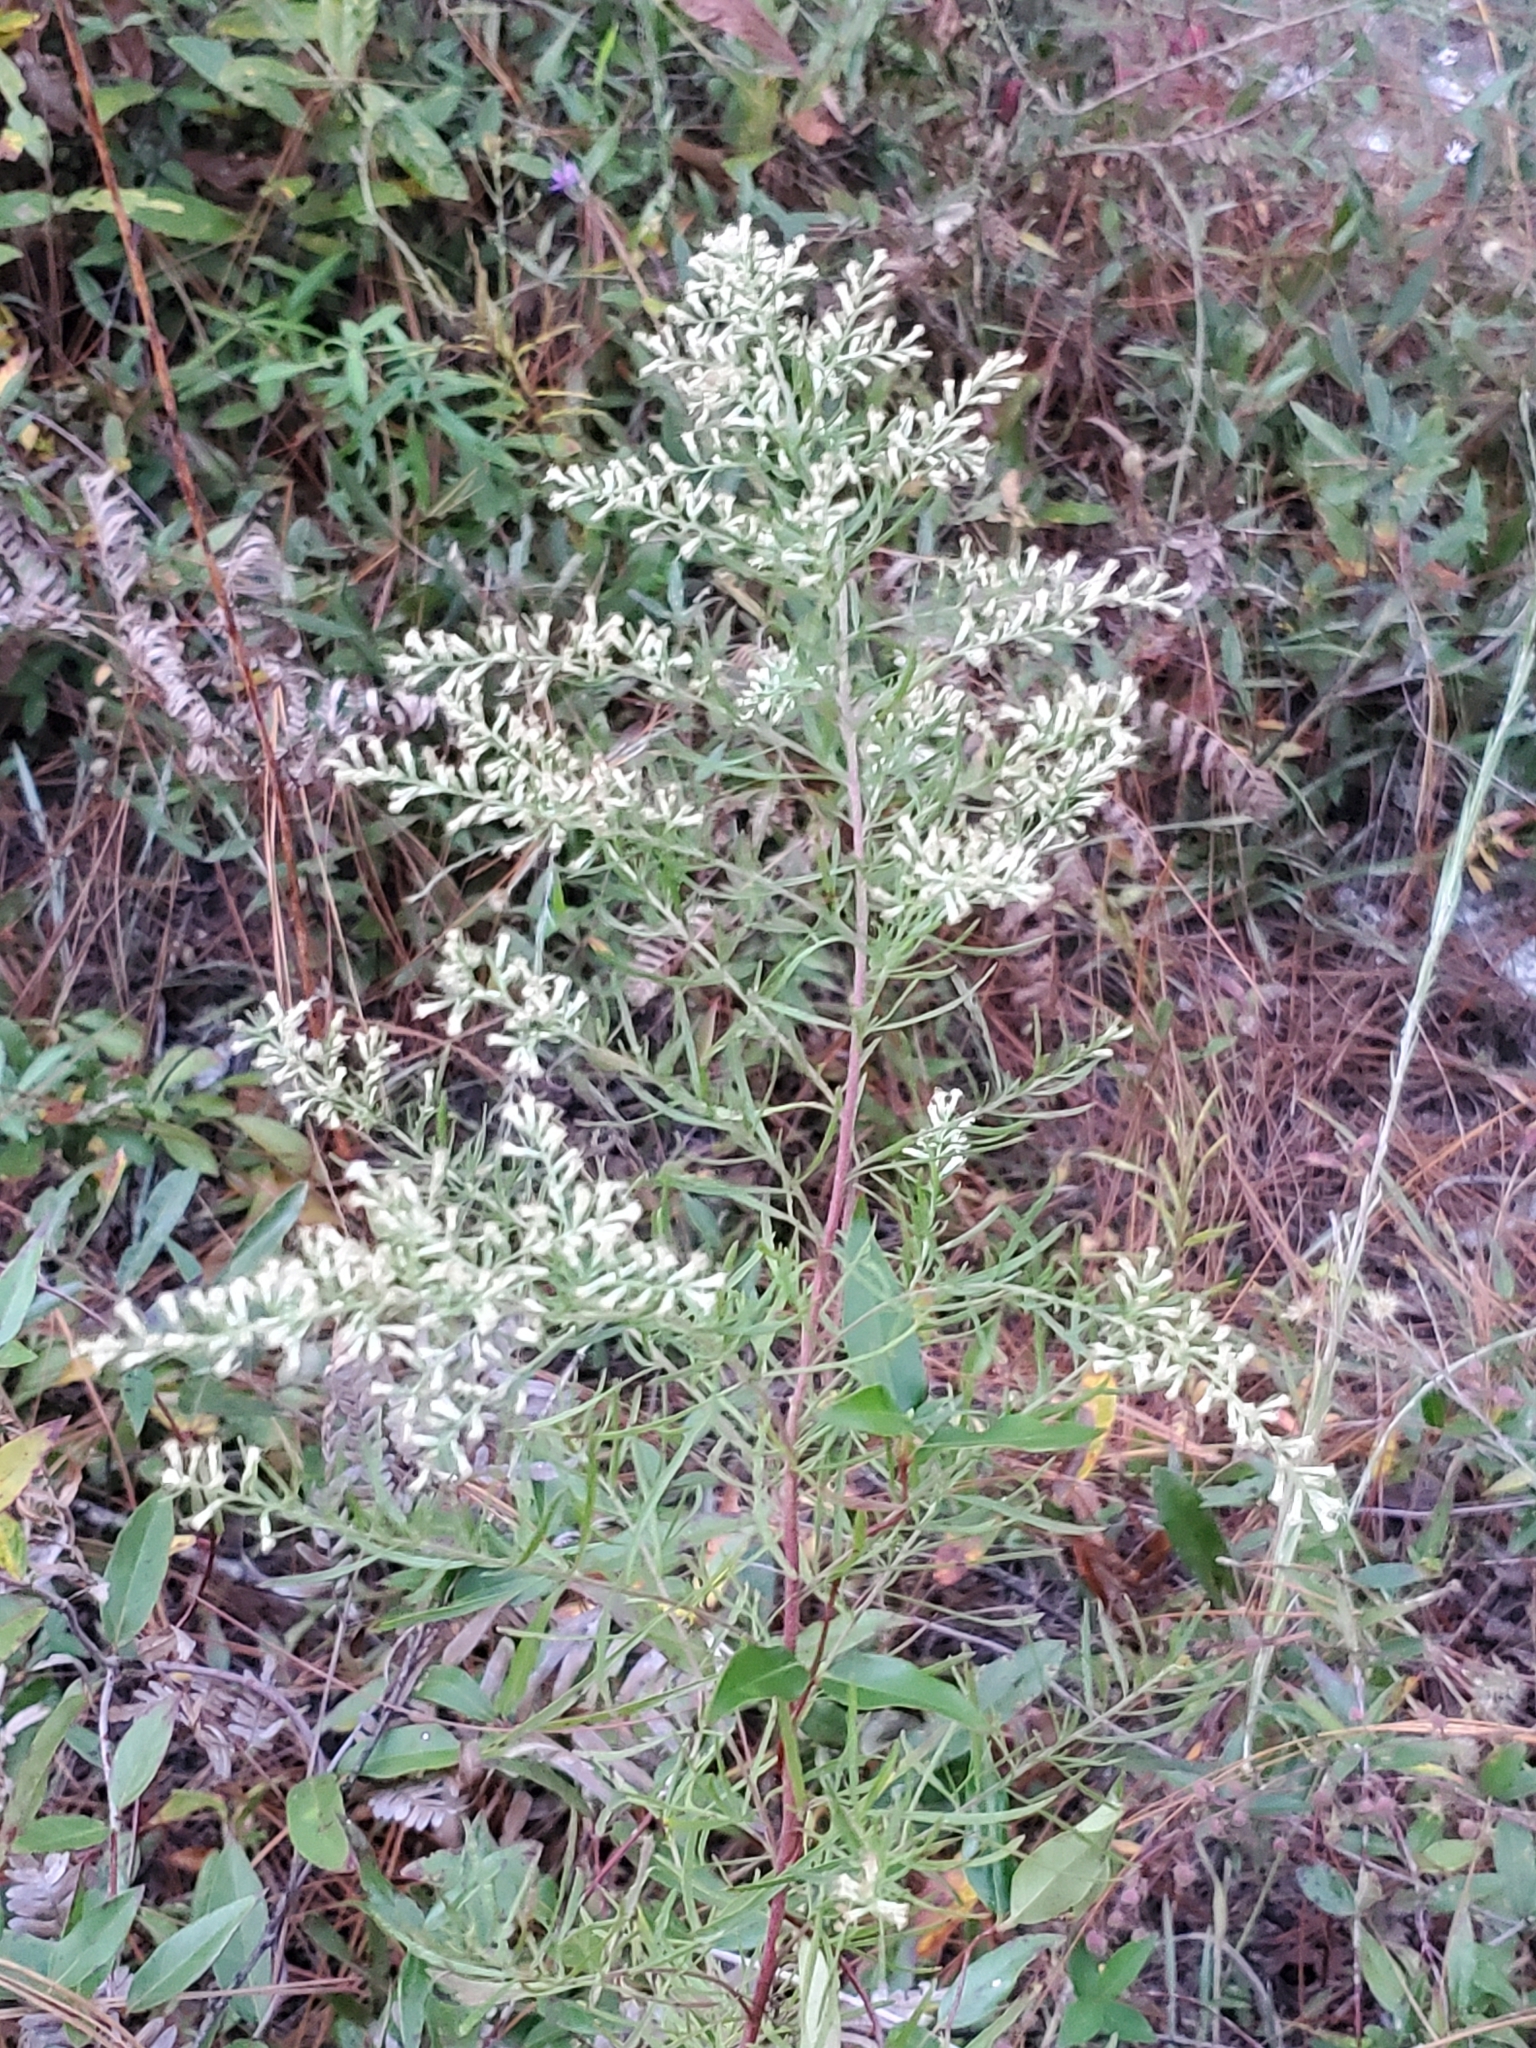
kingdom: Plantae
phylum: Tracheophyta
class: Magnoliopsida
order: Asterales
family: Asteraceae
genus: Eupatorium
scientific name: Eupatorium compositifolium
